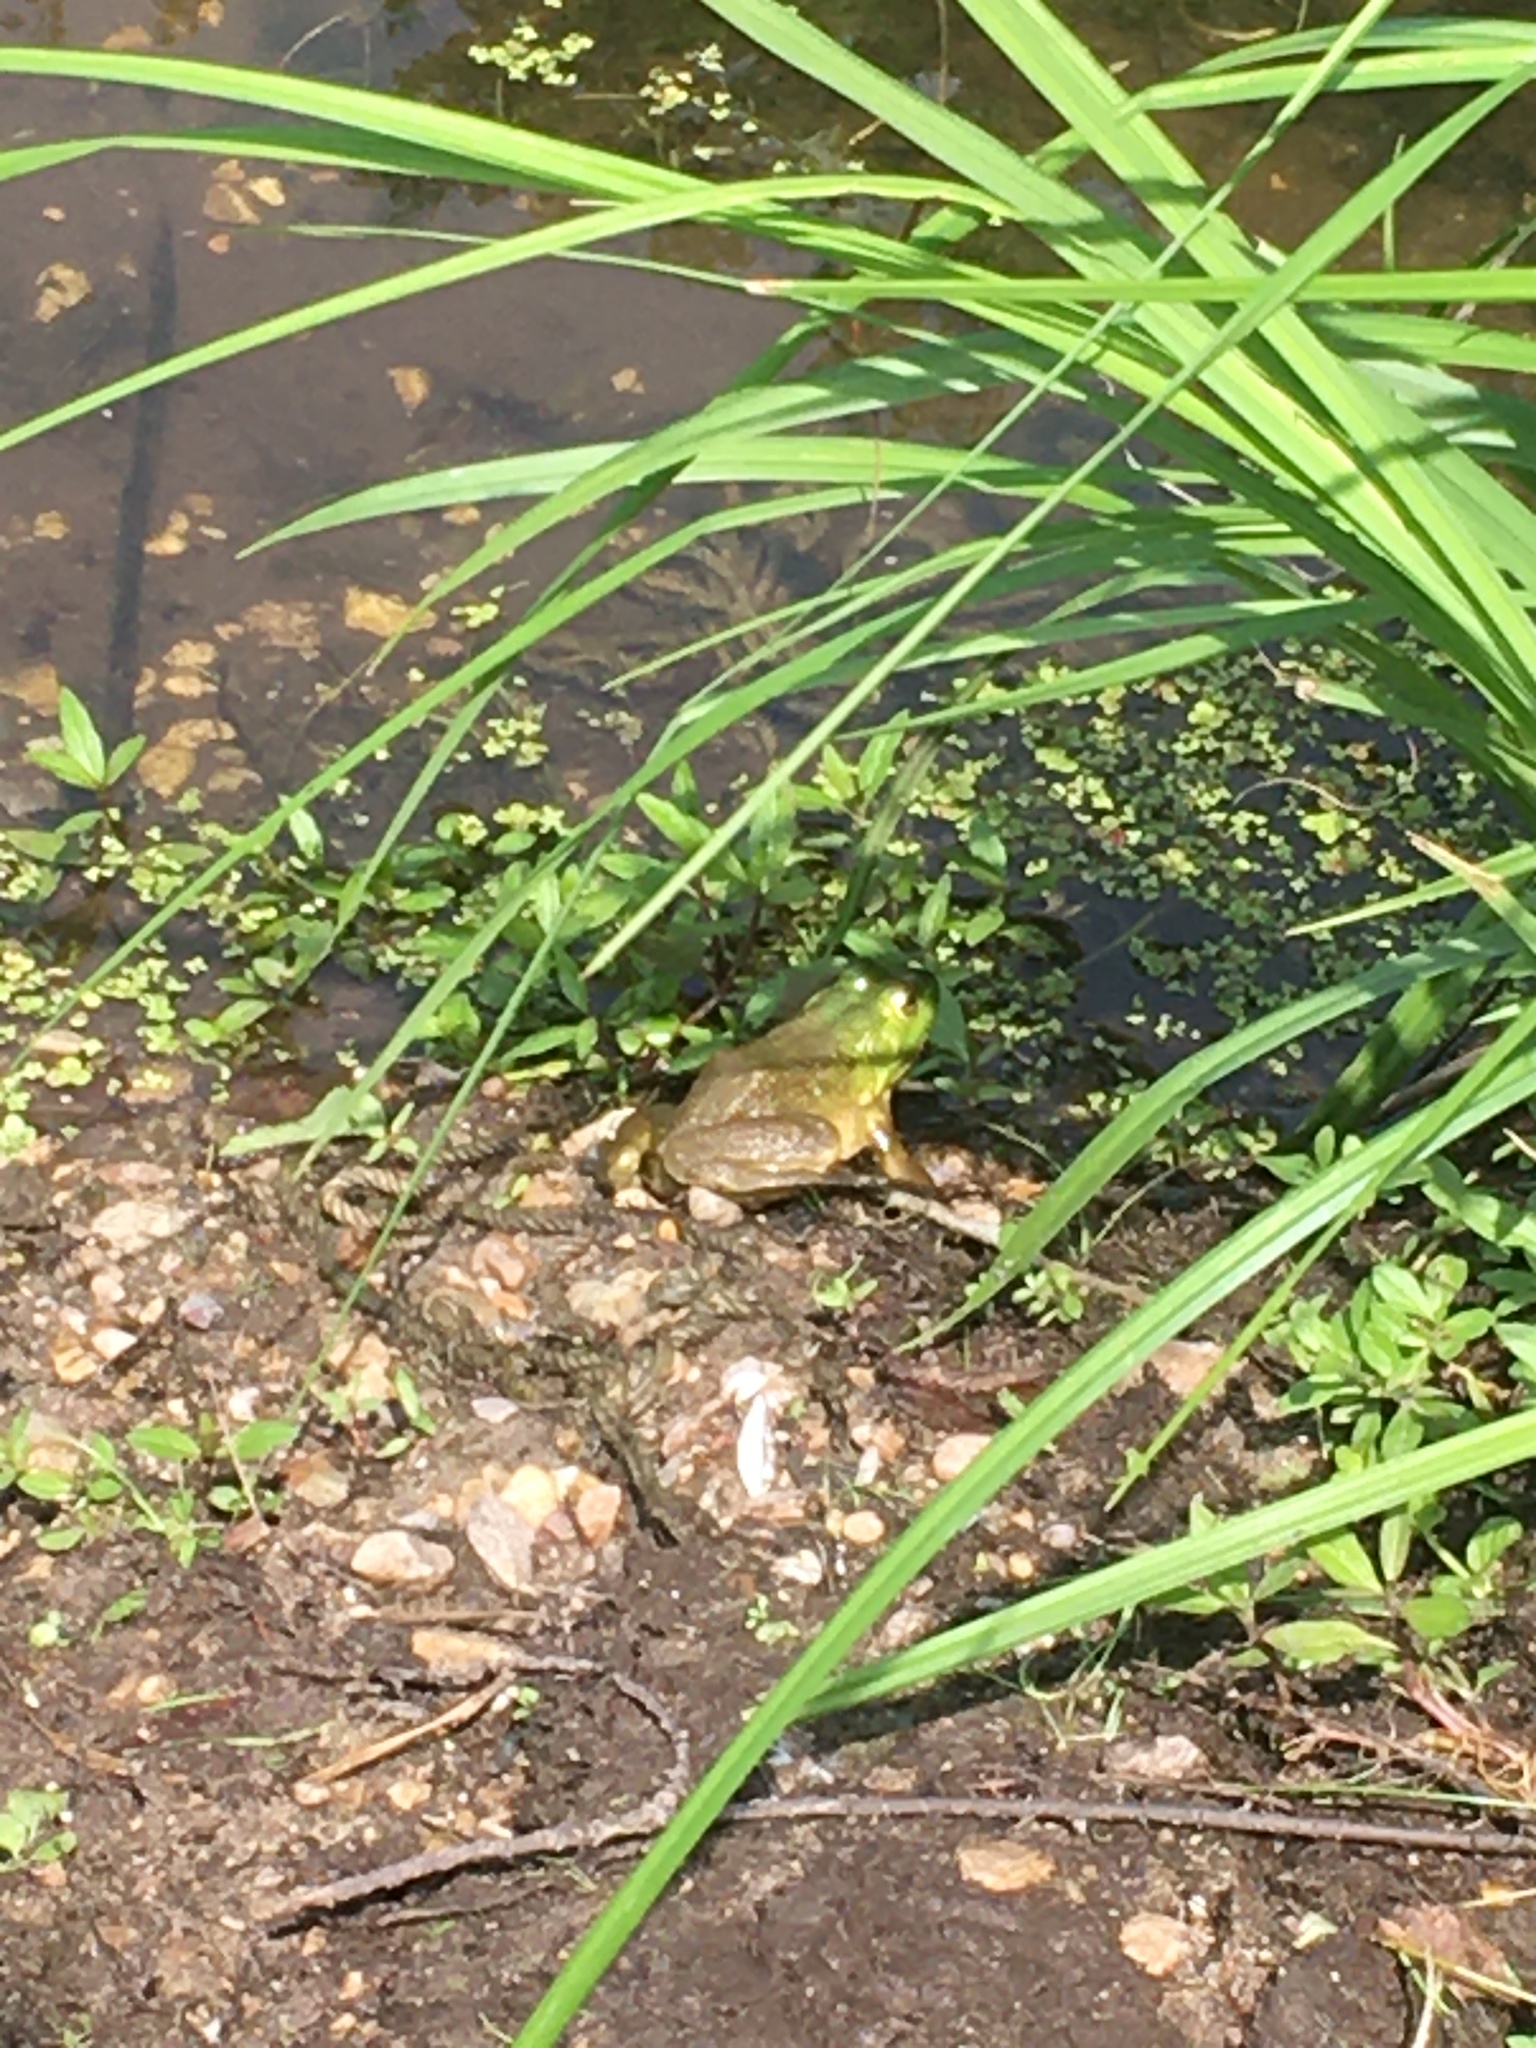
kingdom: Animalia
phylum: Chordata
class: Amphibia
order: Anura
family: Ranidae
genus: Lithobates
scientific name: Lithobates catesbeianus
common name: American bullfrog
